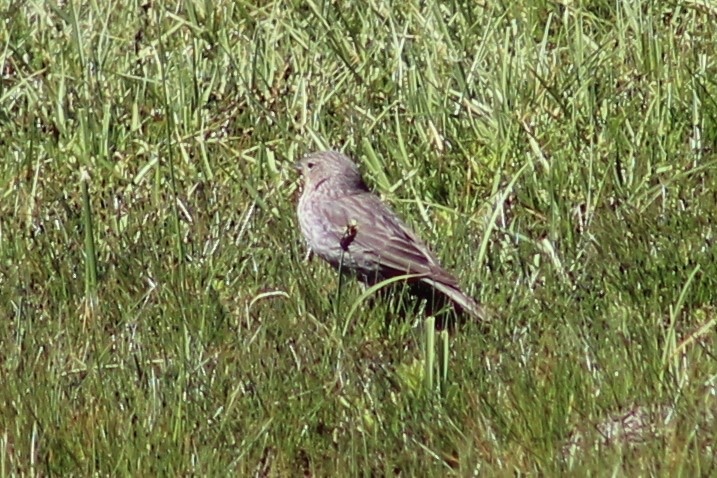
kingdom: Animalia
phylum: Chordata
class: Aves
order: Passeriformes
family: Thraupidae
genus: Geospizopsis
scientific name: Geospizopsis unicolor
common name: Plumbeous sierra-finch
